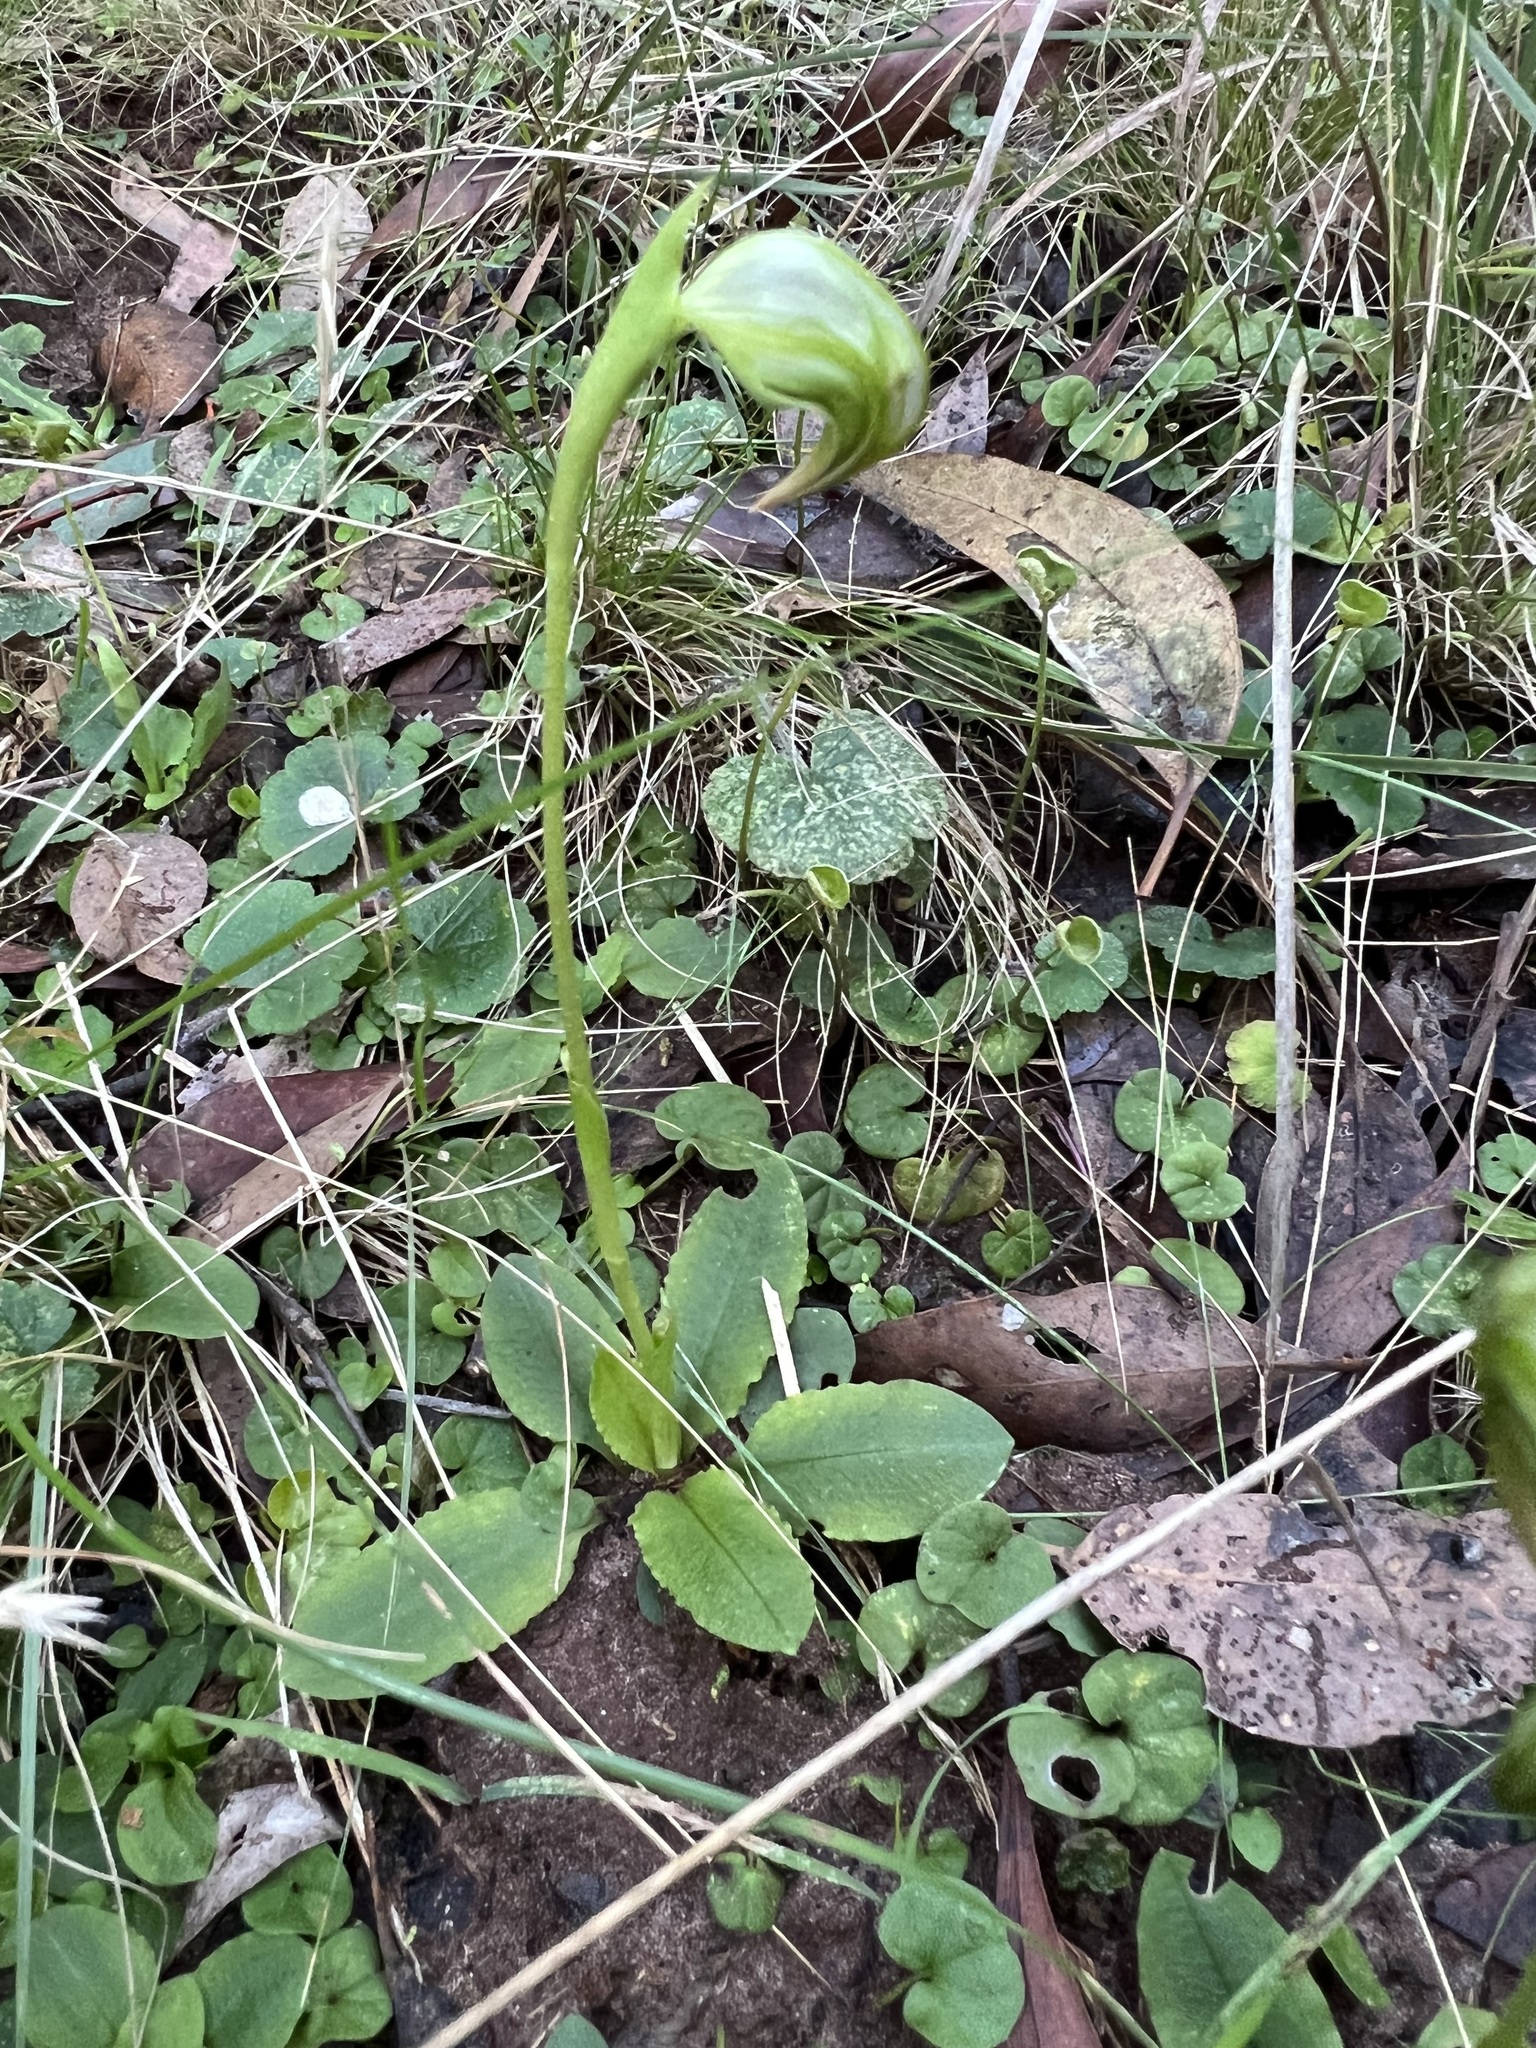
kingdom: Plantae
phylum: Tracheophyta
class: Liliopsida
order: Asparagales
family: Orchidaceae
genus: Pterostylis
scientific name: Pterostylis nutans
